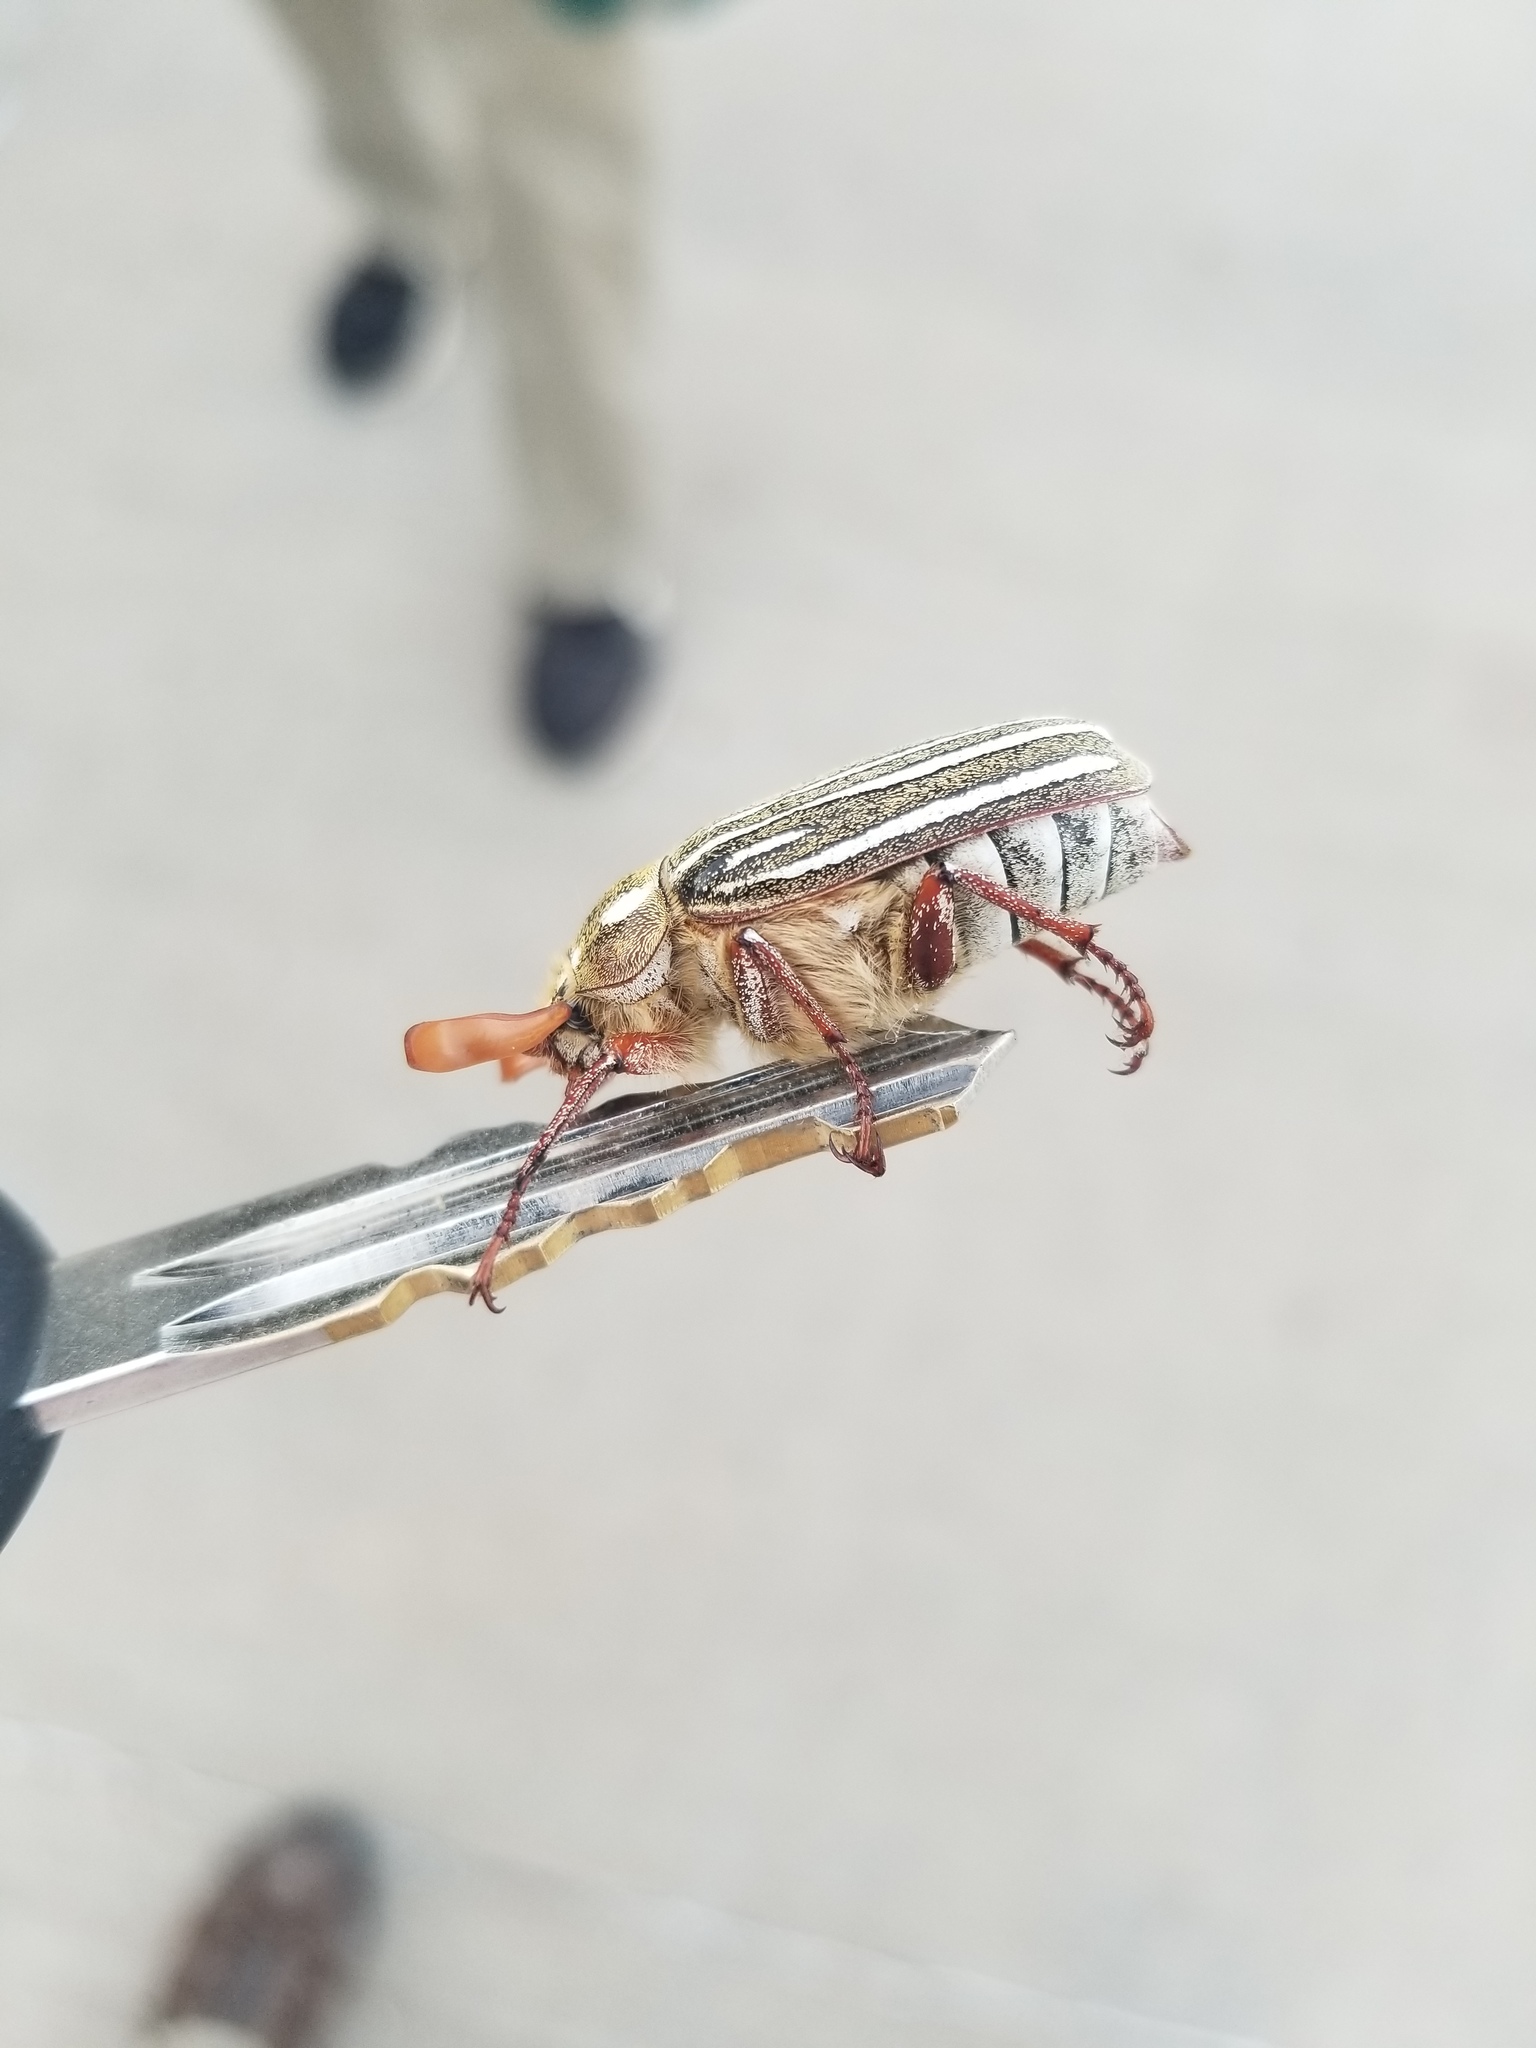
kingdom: Animalia
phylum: Arthropoda
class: Insecta
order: Coleoptera
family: Scarabaeidae
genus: Polyphylla
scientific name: Polyphylla decemlineata
